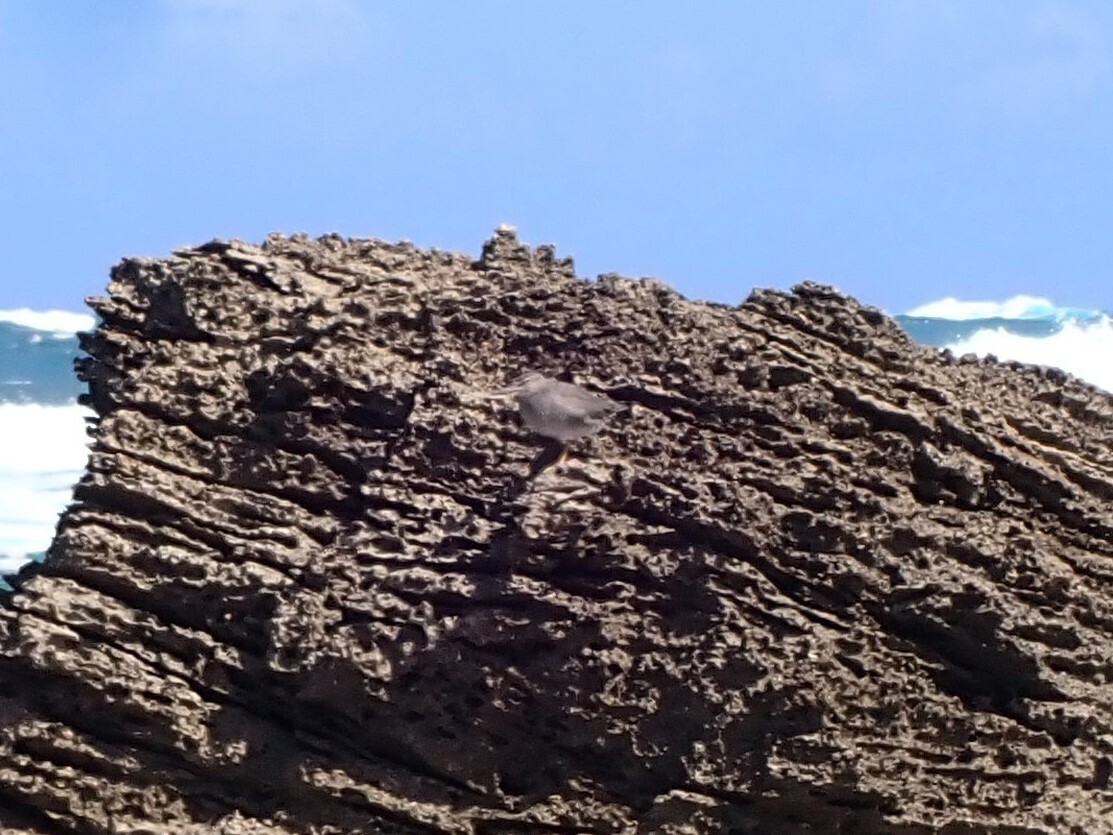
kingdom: Animalia
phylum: Chordata
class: Aves
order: Charadriiformes
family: Scolopacidae
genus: Tringa
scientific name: Tringa incana
